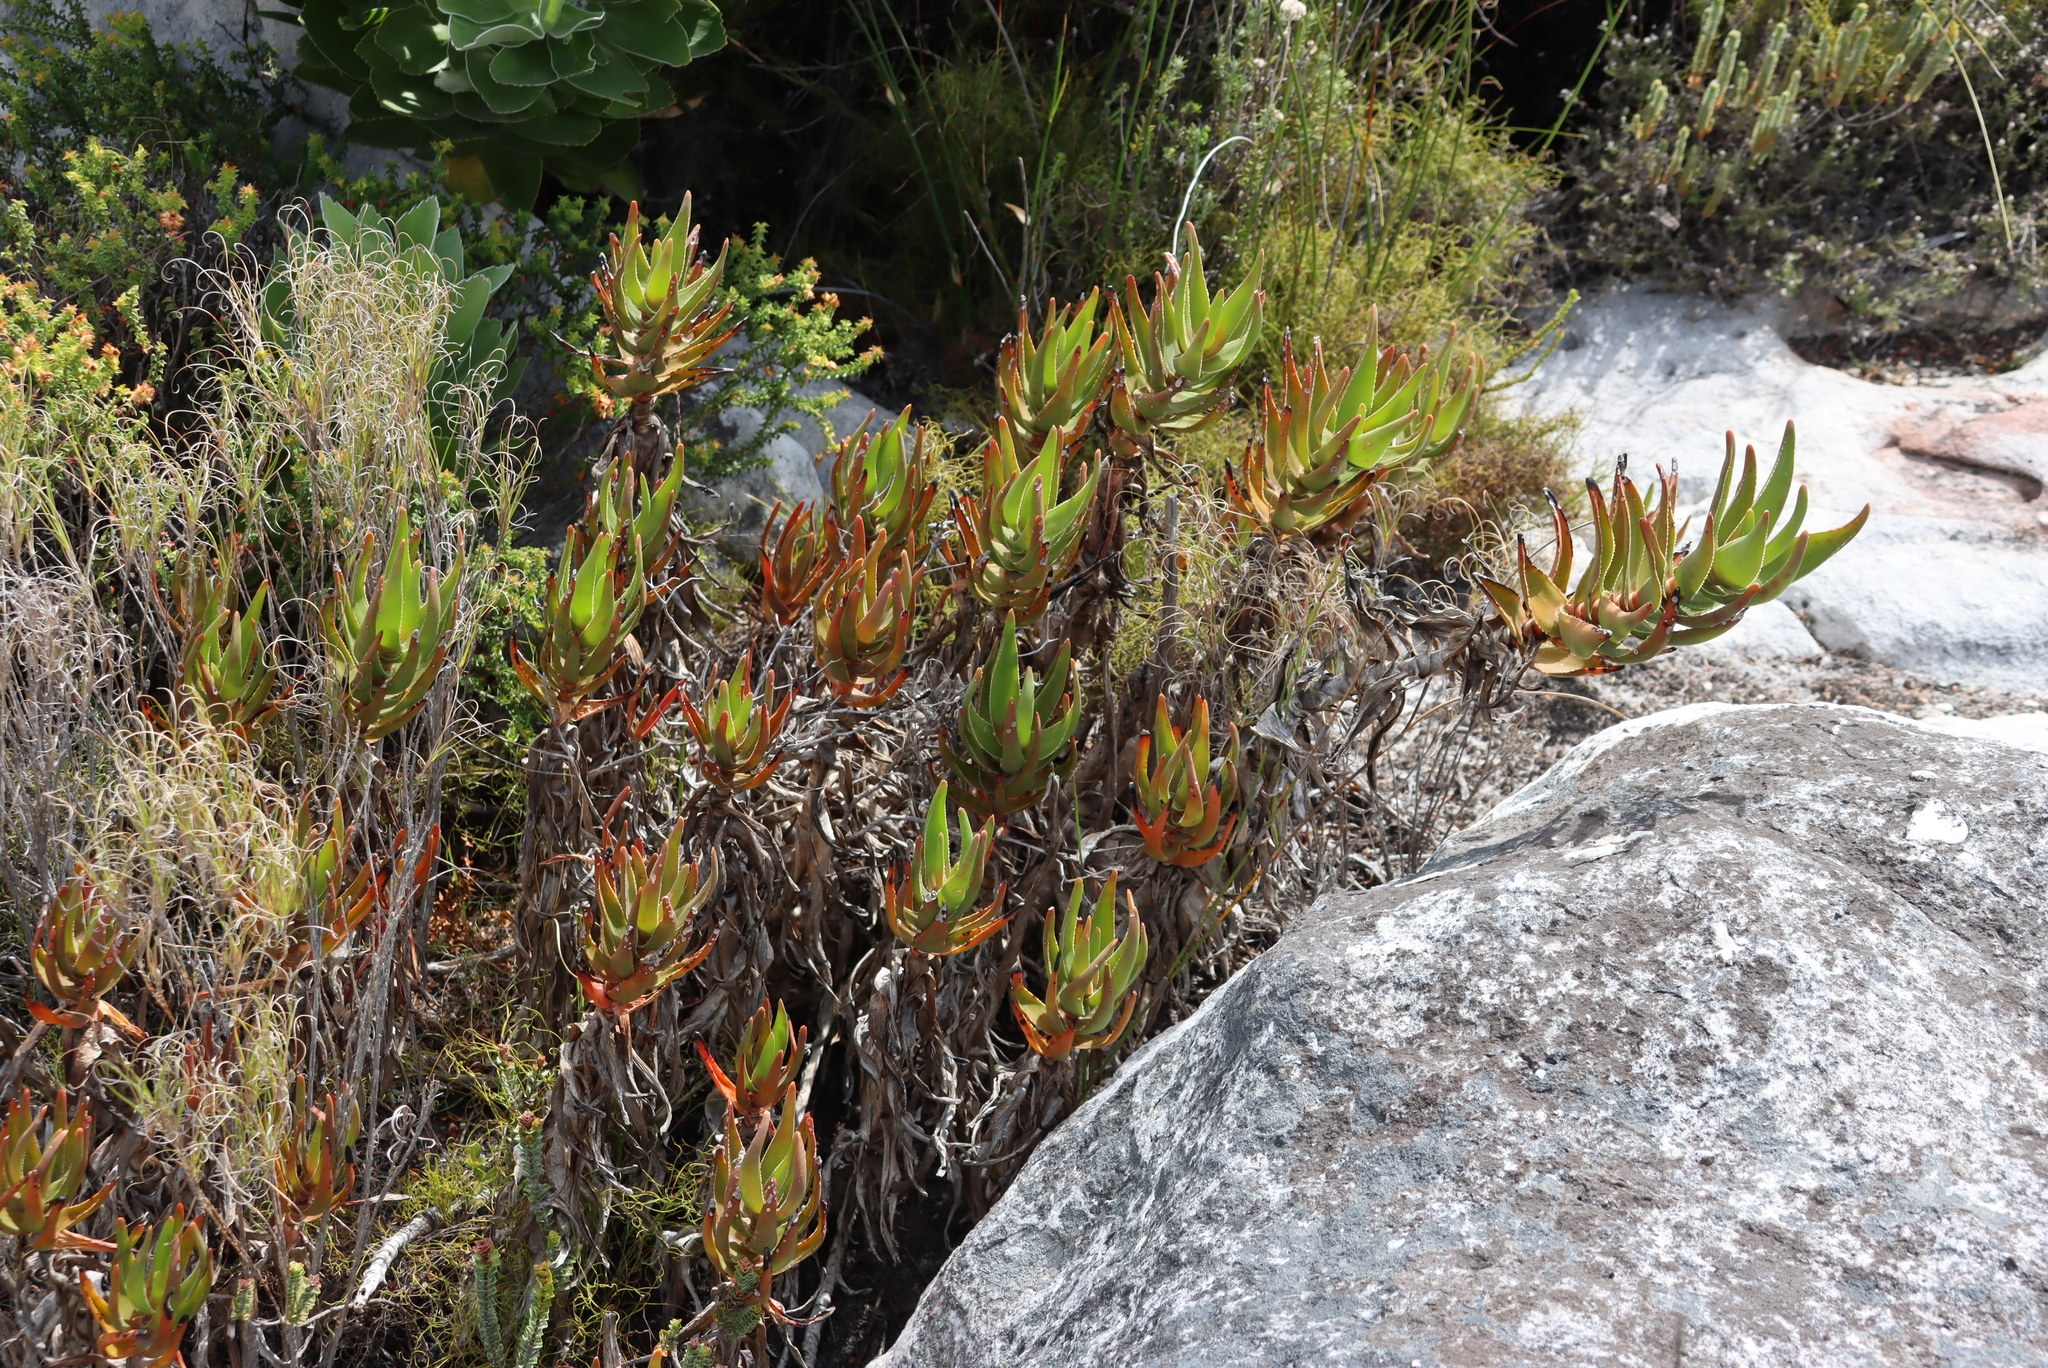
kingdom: Plantae
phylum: Tracheophyta
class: Liliopsida
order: Asparagales
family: Asphodelaceae
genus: Aloiampelos
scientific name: Aloiampelos commixta
